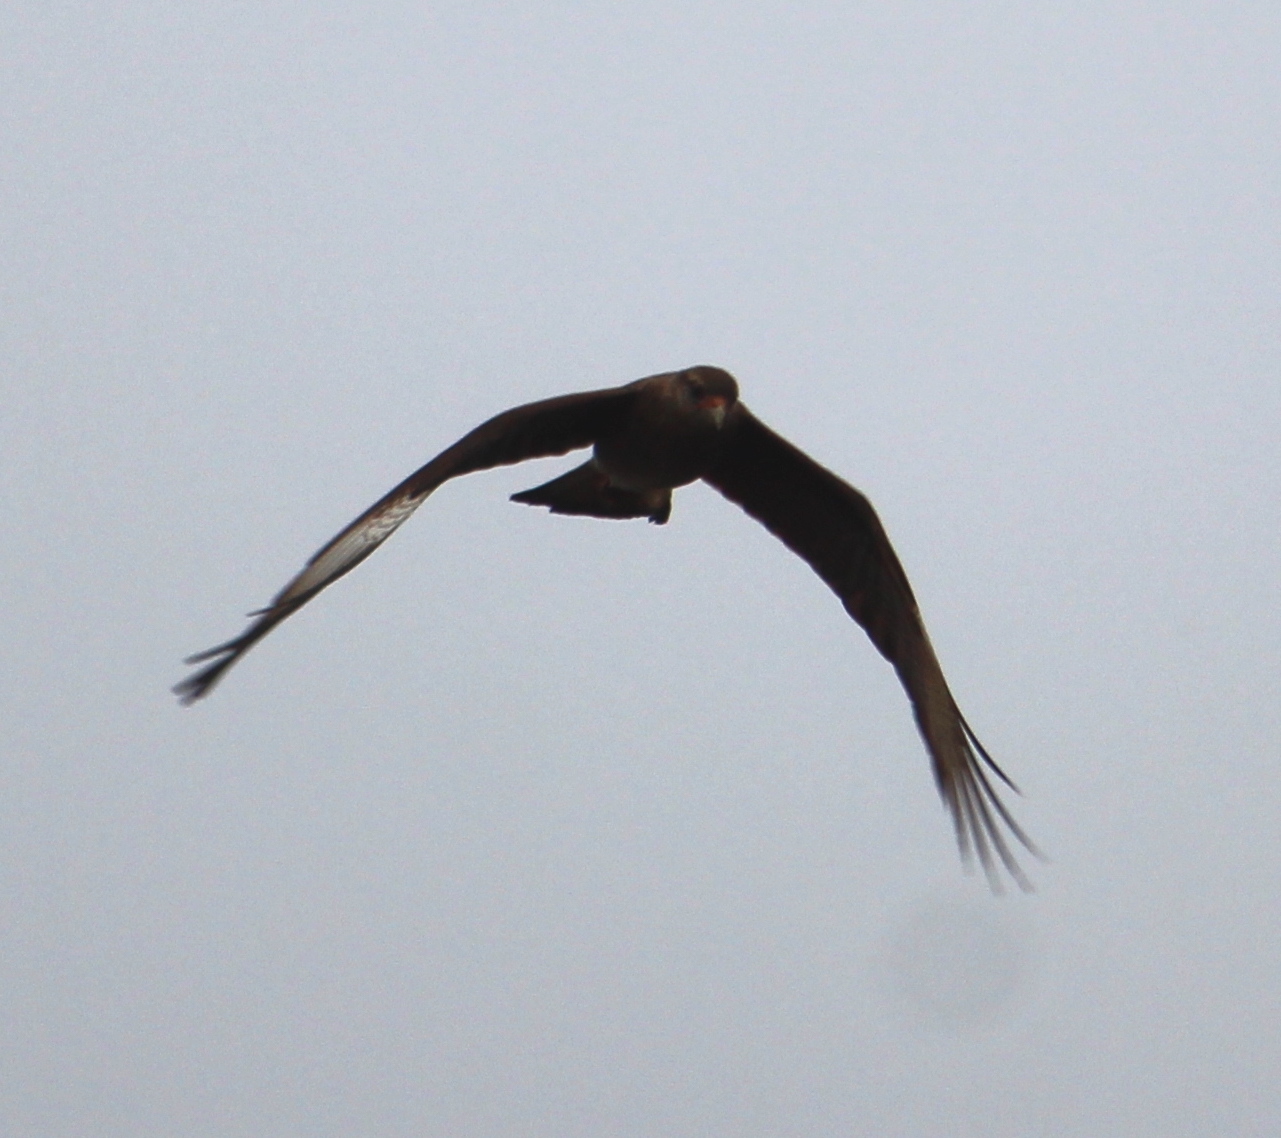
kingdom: Animalia
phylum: Chordata
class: Aves
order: Falconiformes
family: Falconidae
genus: Daptrius
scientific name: Daptrius
